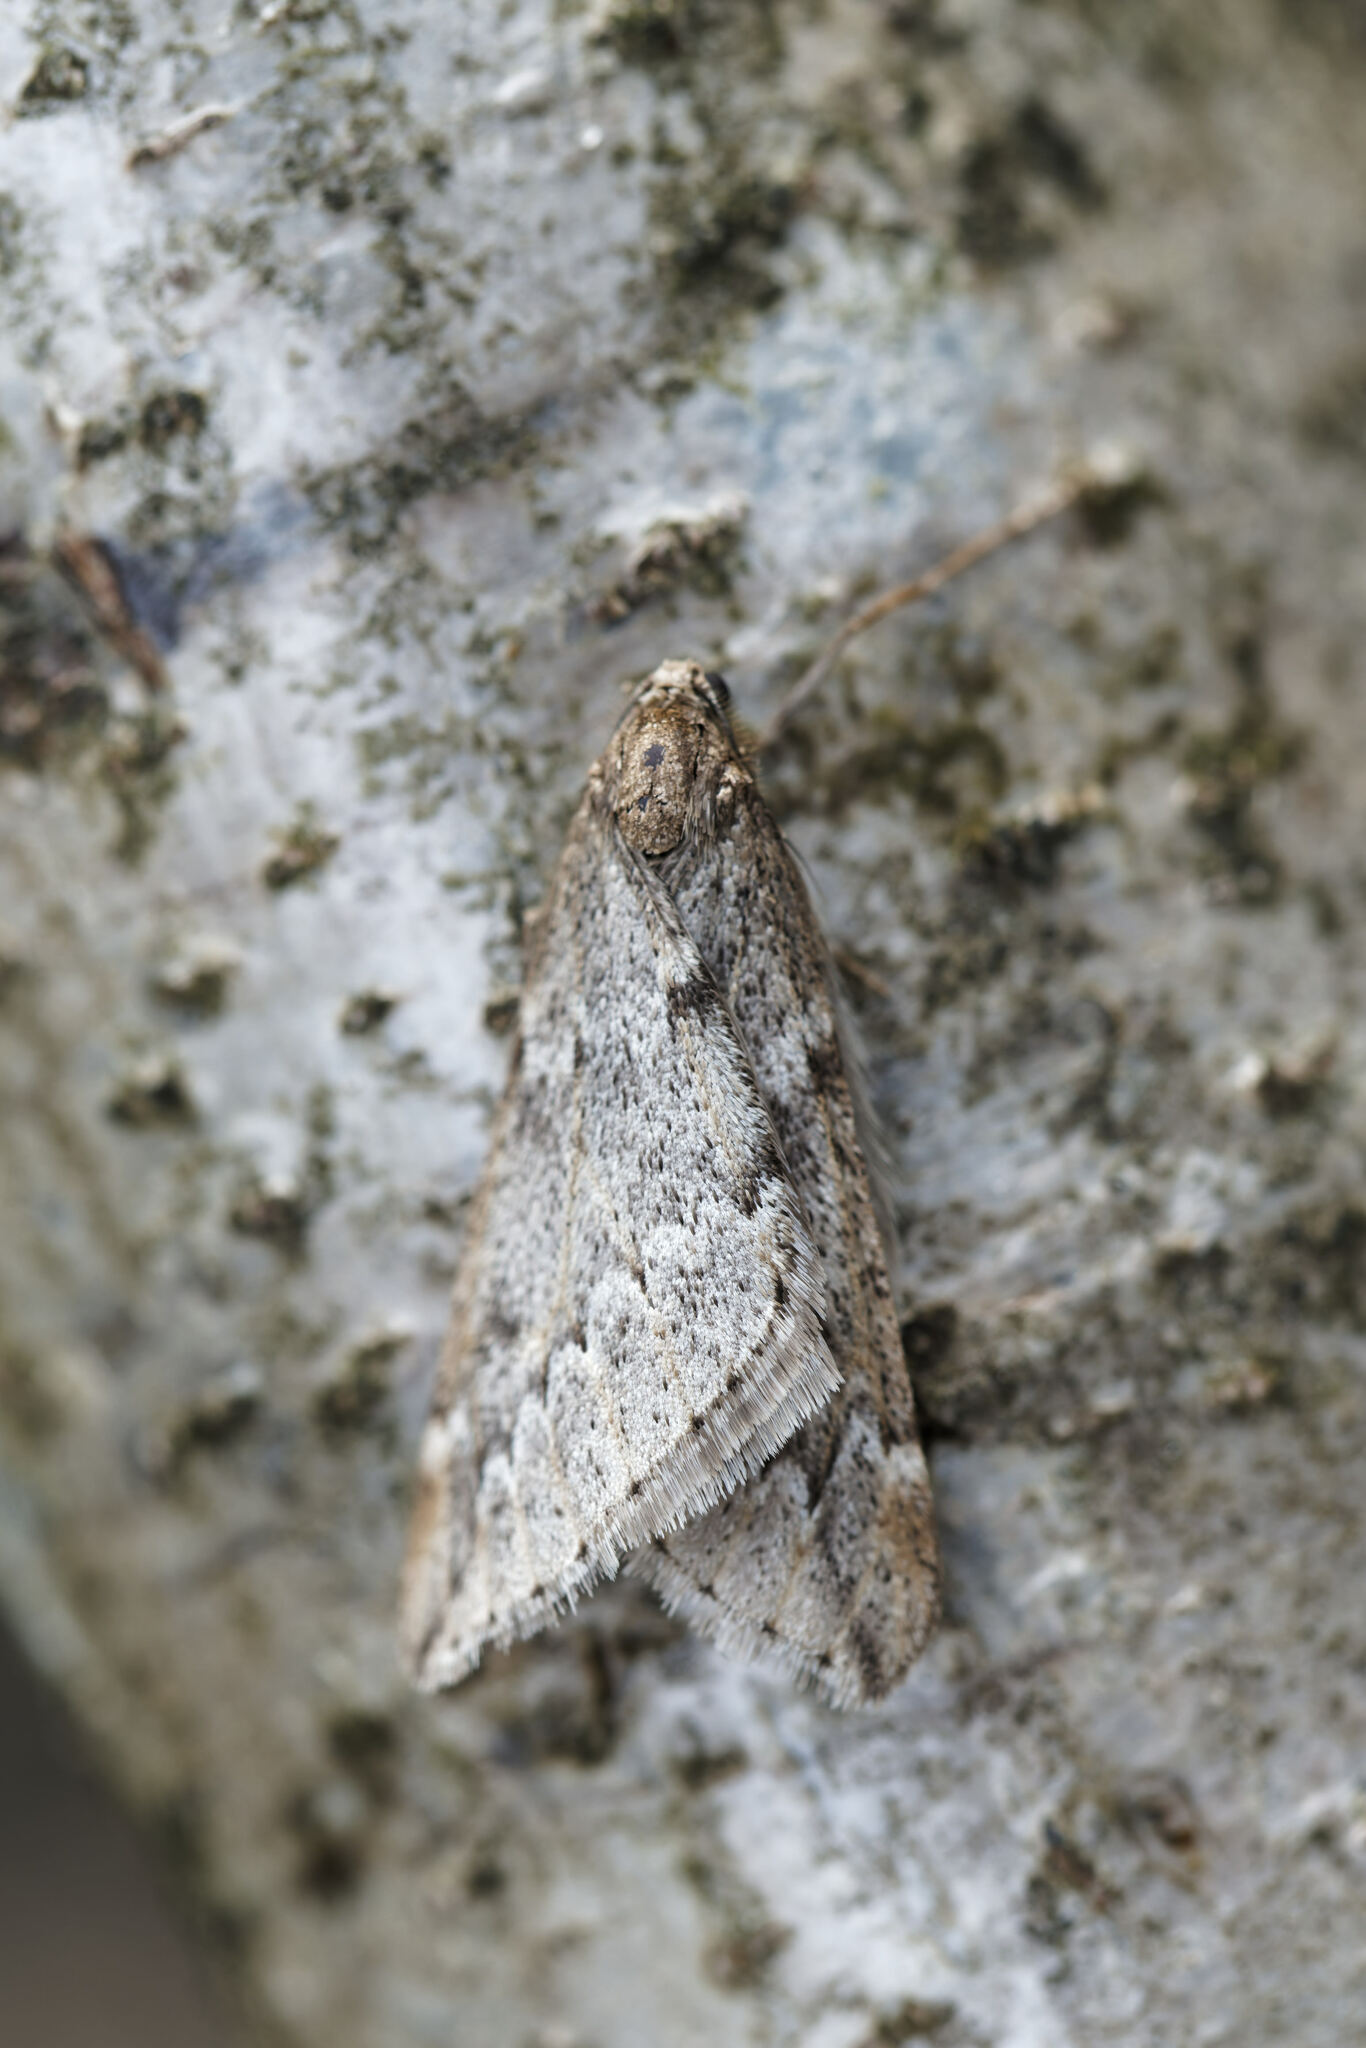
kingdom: Animalia
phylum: Arthropoda
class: Insecta
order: Lepidoptera
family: Geometridae
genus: Alsophila
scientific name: Alsophila aescularia
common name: March moth
